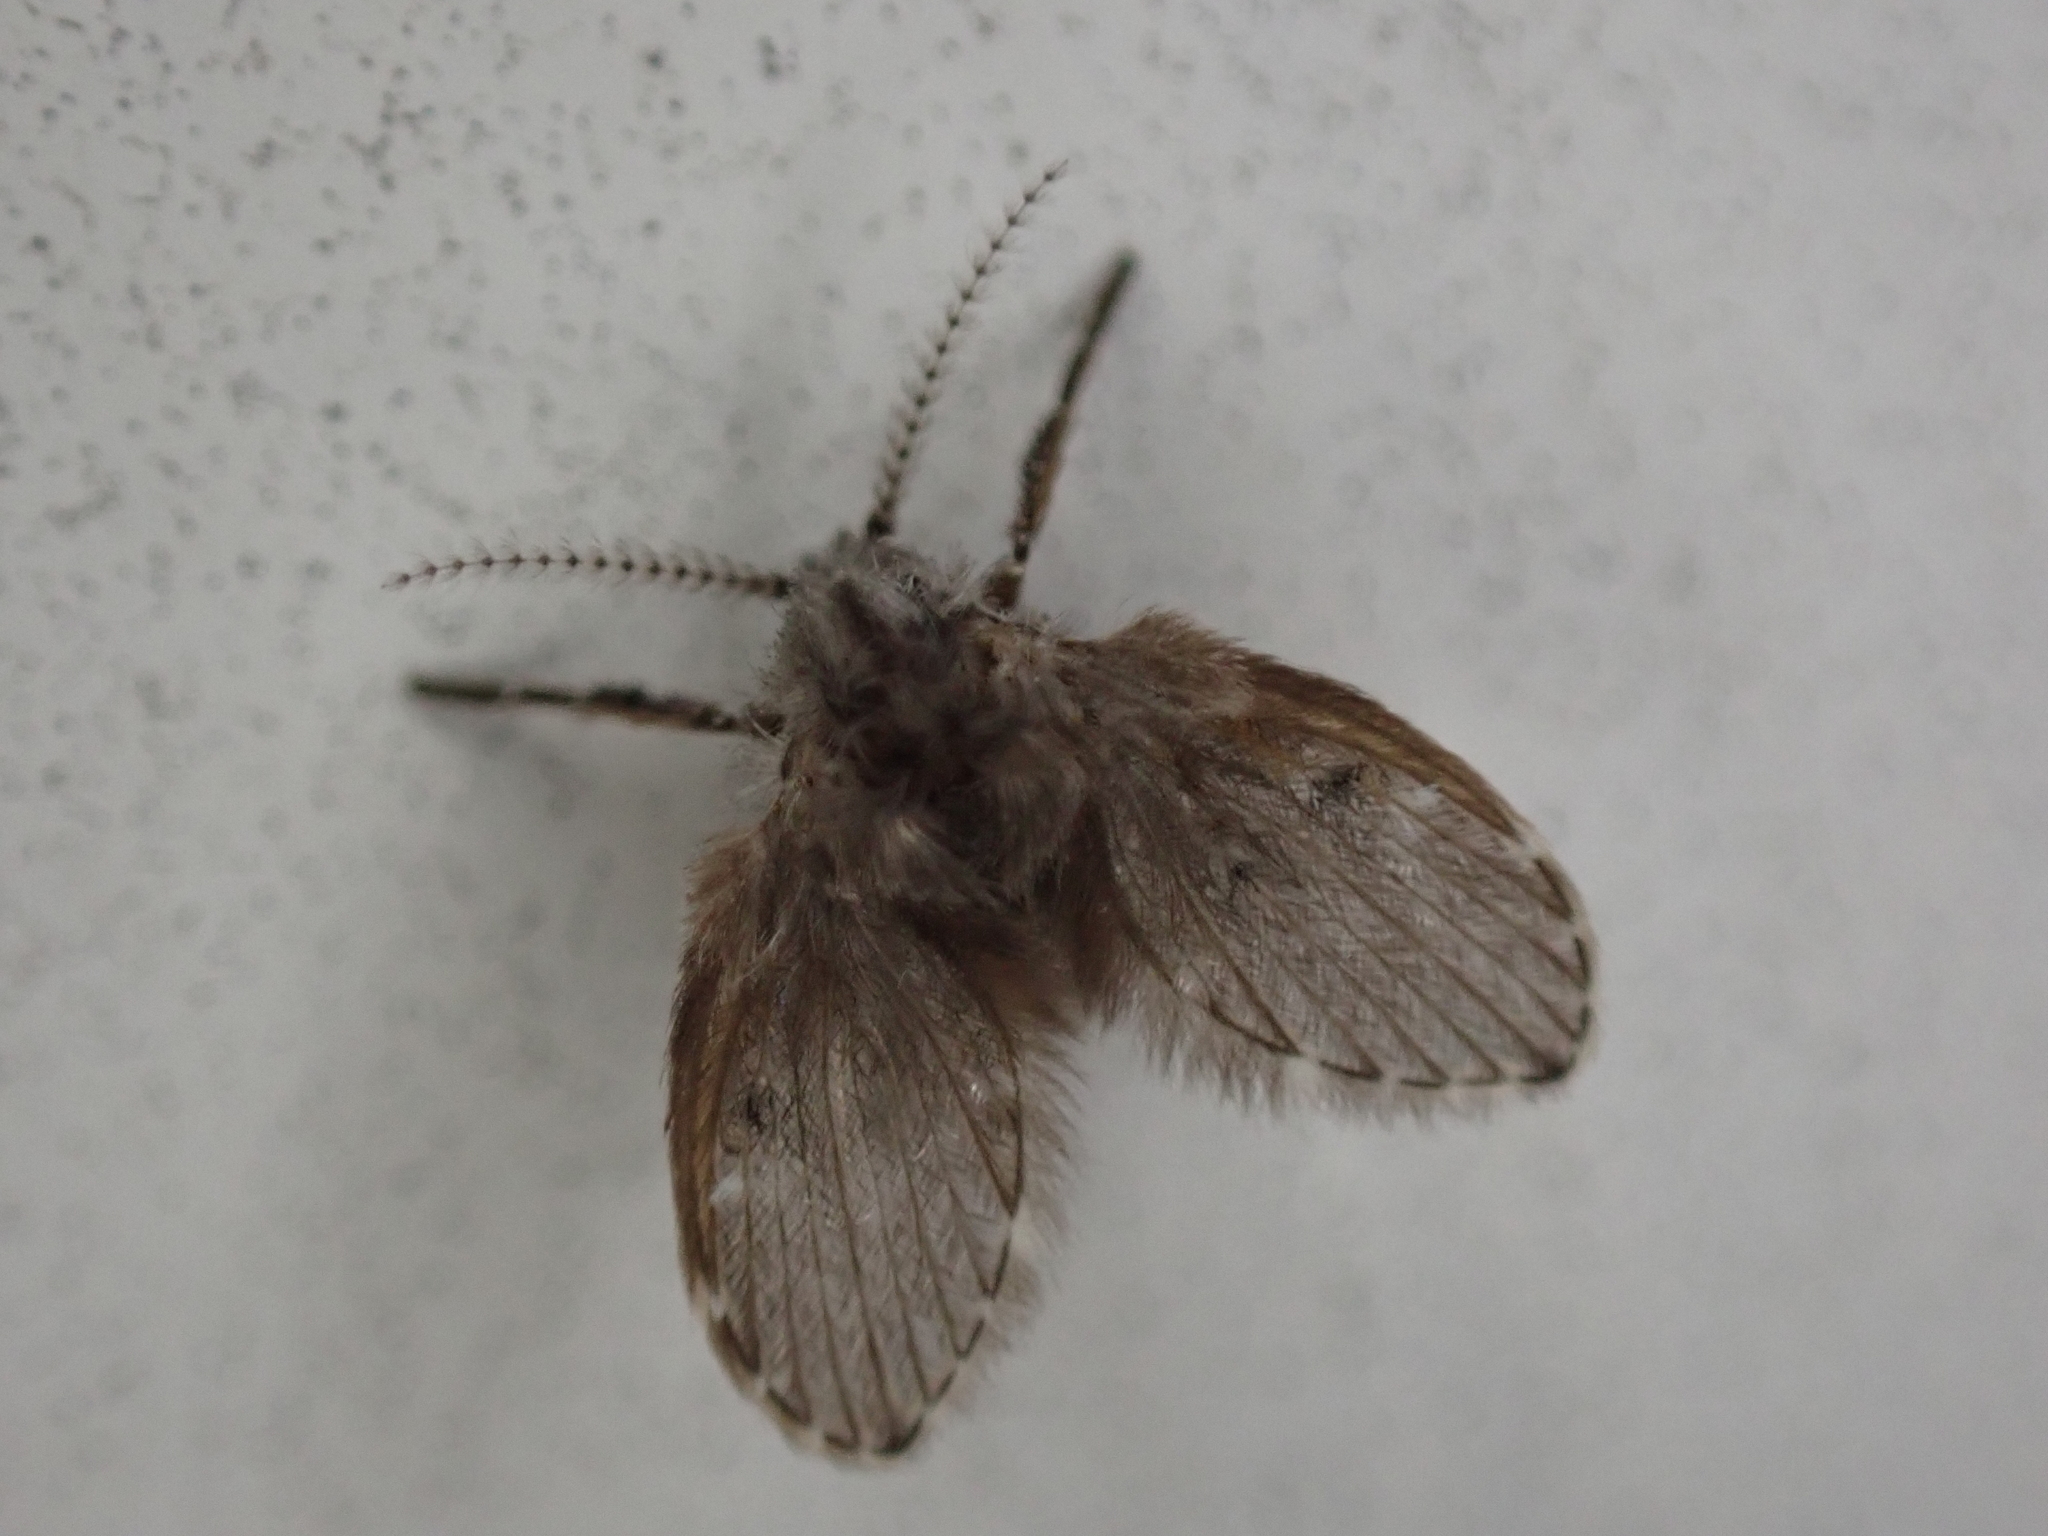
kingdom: Animalia
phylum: Arthropoda
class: Insecta
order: Diptera
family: Psychodidae
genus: Clogmia
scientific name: Clogmia albipunctatus
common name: White-spotted moth fly
